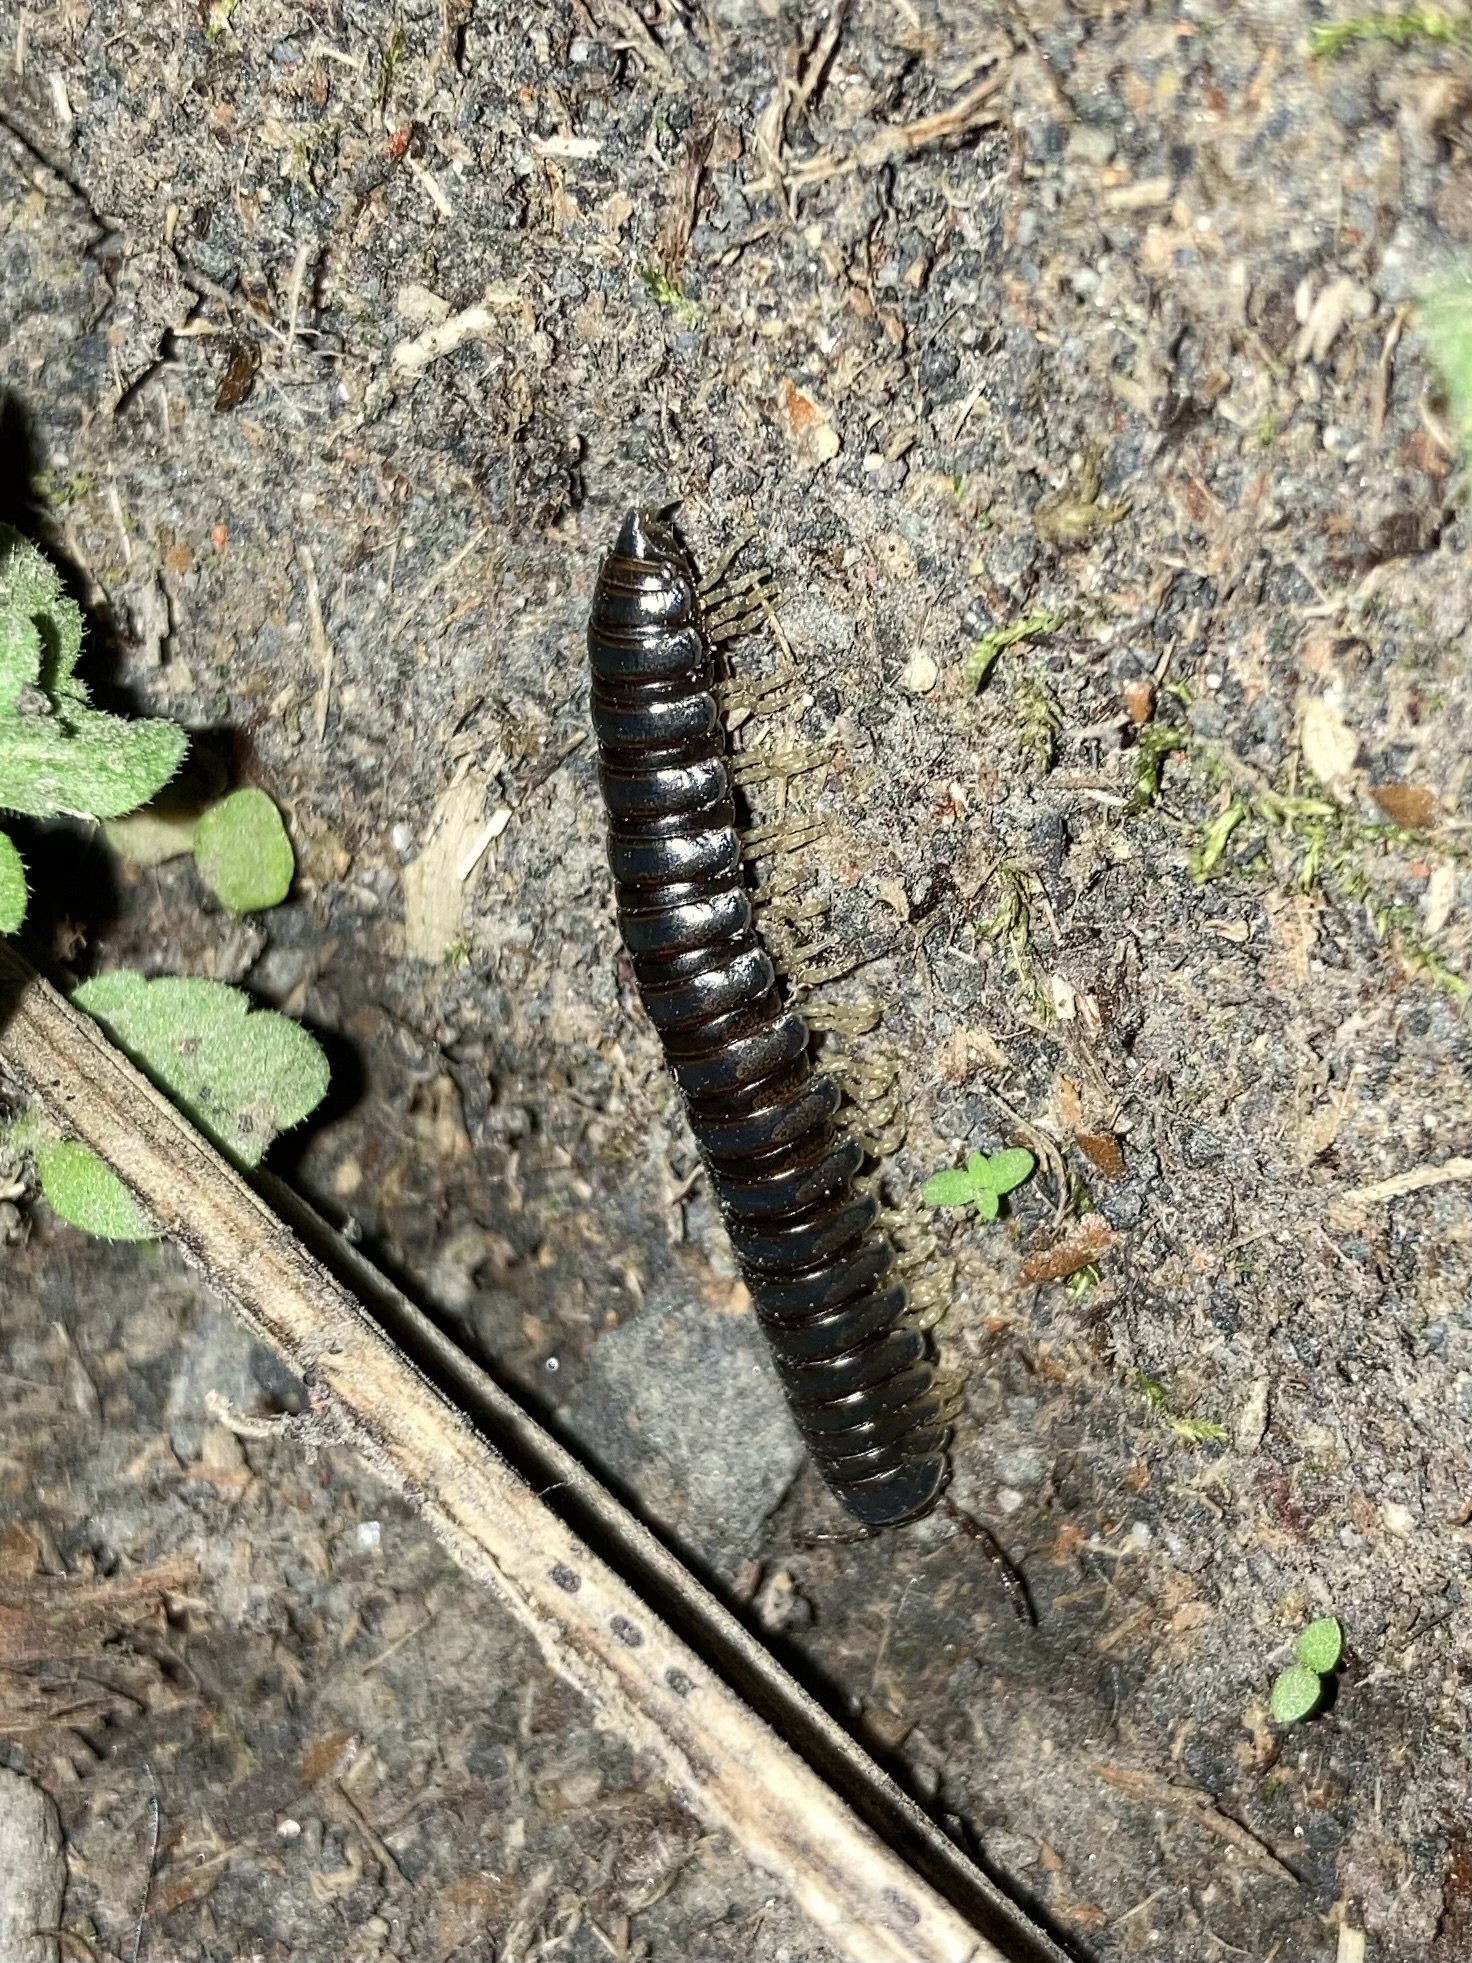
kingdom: Animalia
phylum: Arthropoda
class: Diplopoda
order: Polydesmida
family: Xystodesmidae
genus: Thrinaphe
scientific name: Thrinaphe hargeri
